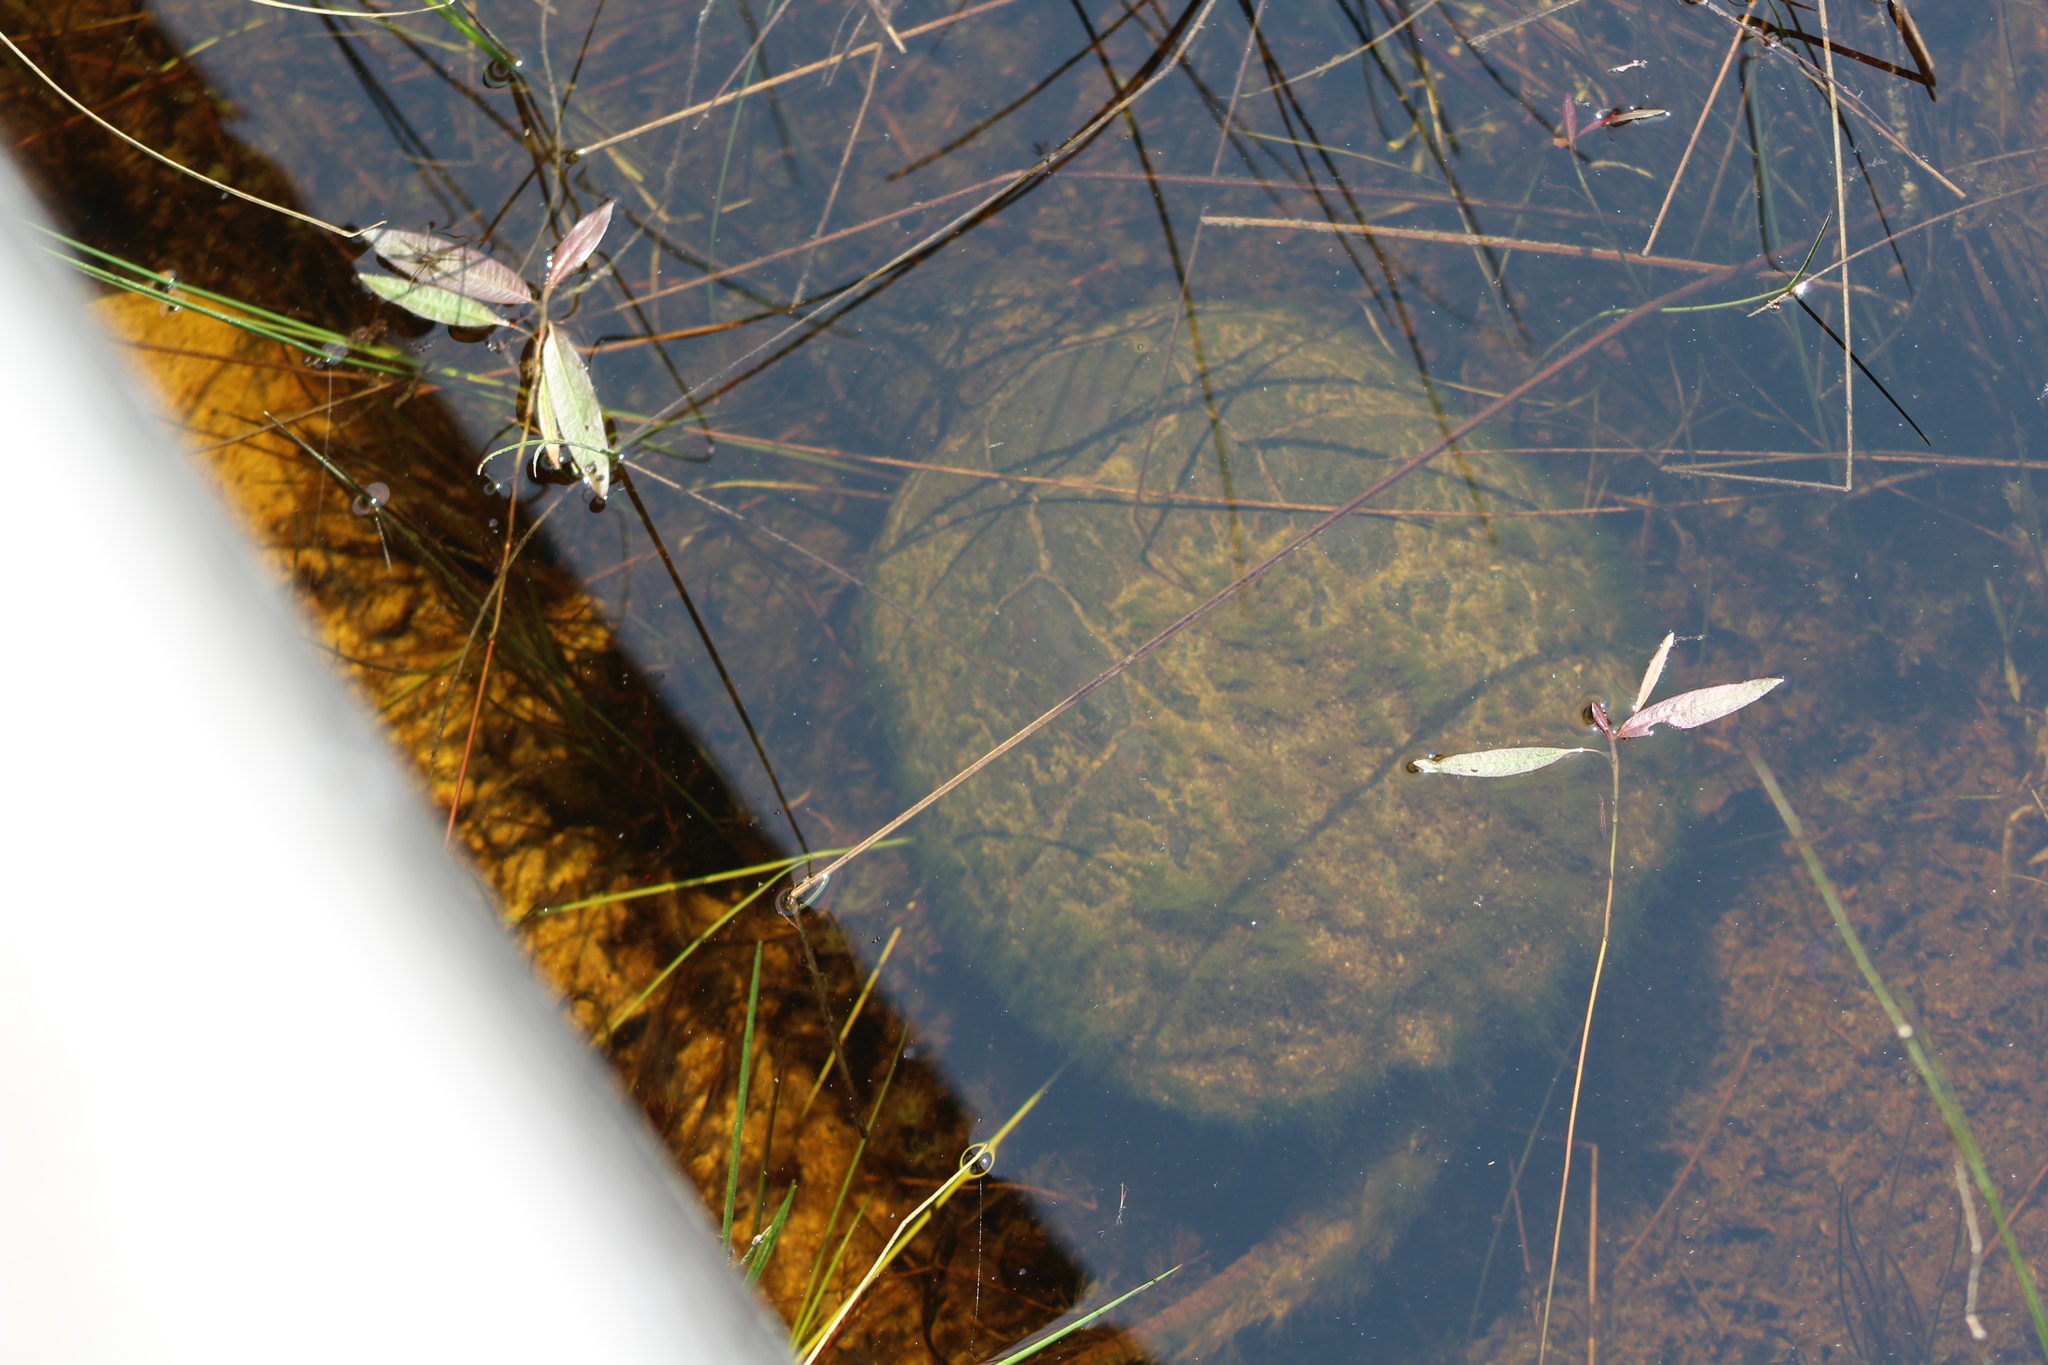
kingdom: Animalia
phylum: Chordata
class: Testudines
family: Chelydridae
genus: Chelydra
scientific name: Chelydra serpentina
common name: Common snapping turtle
